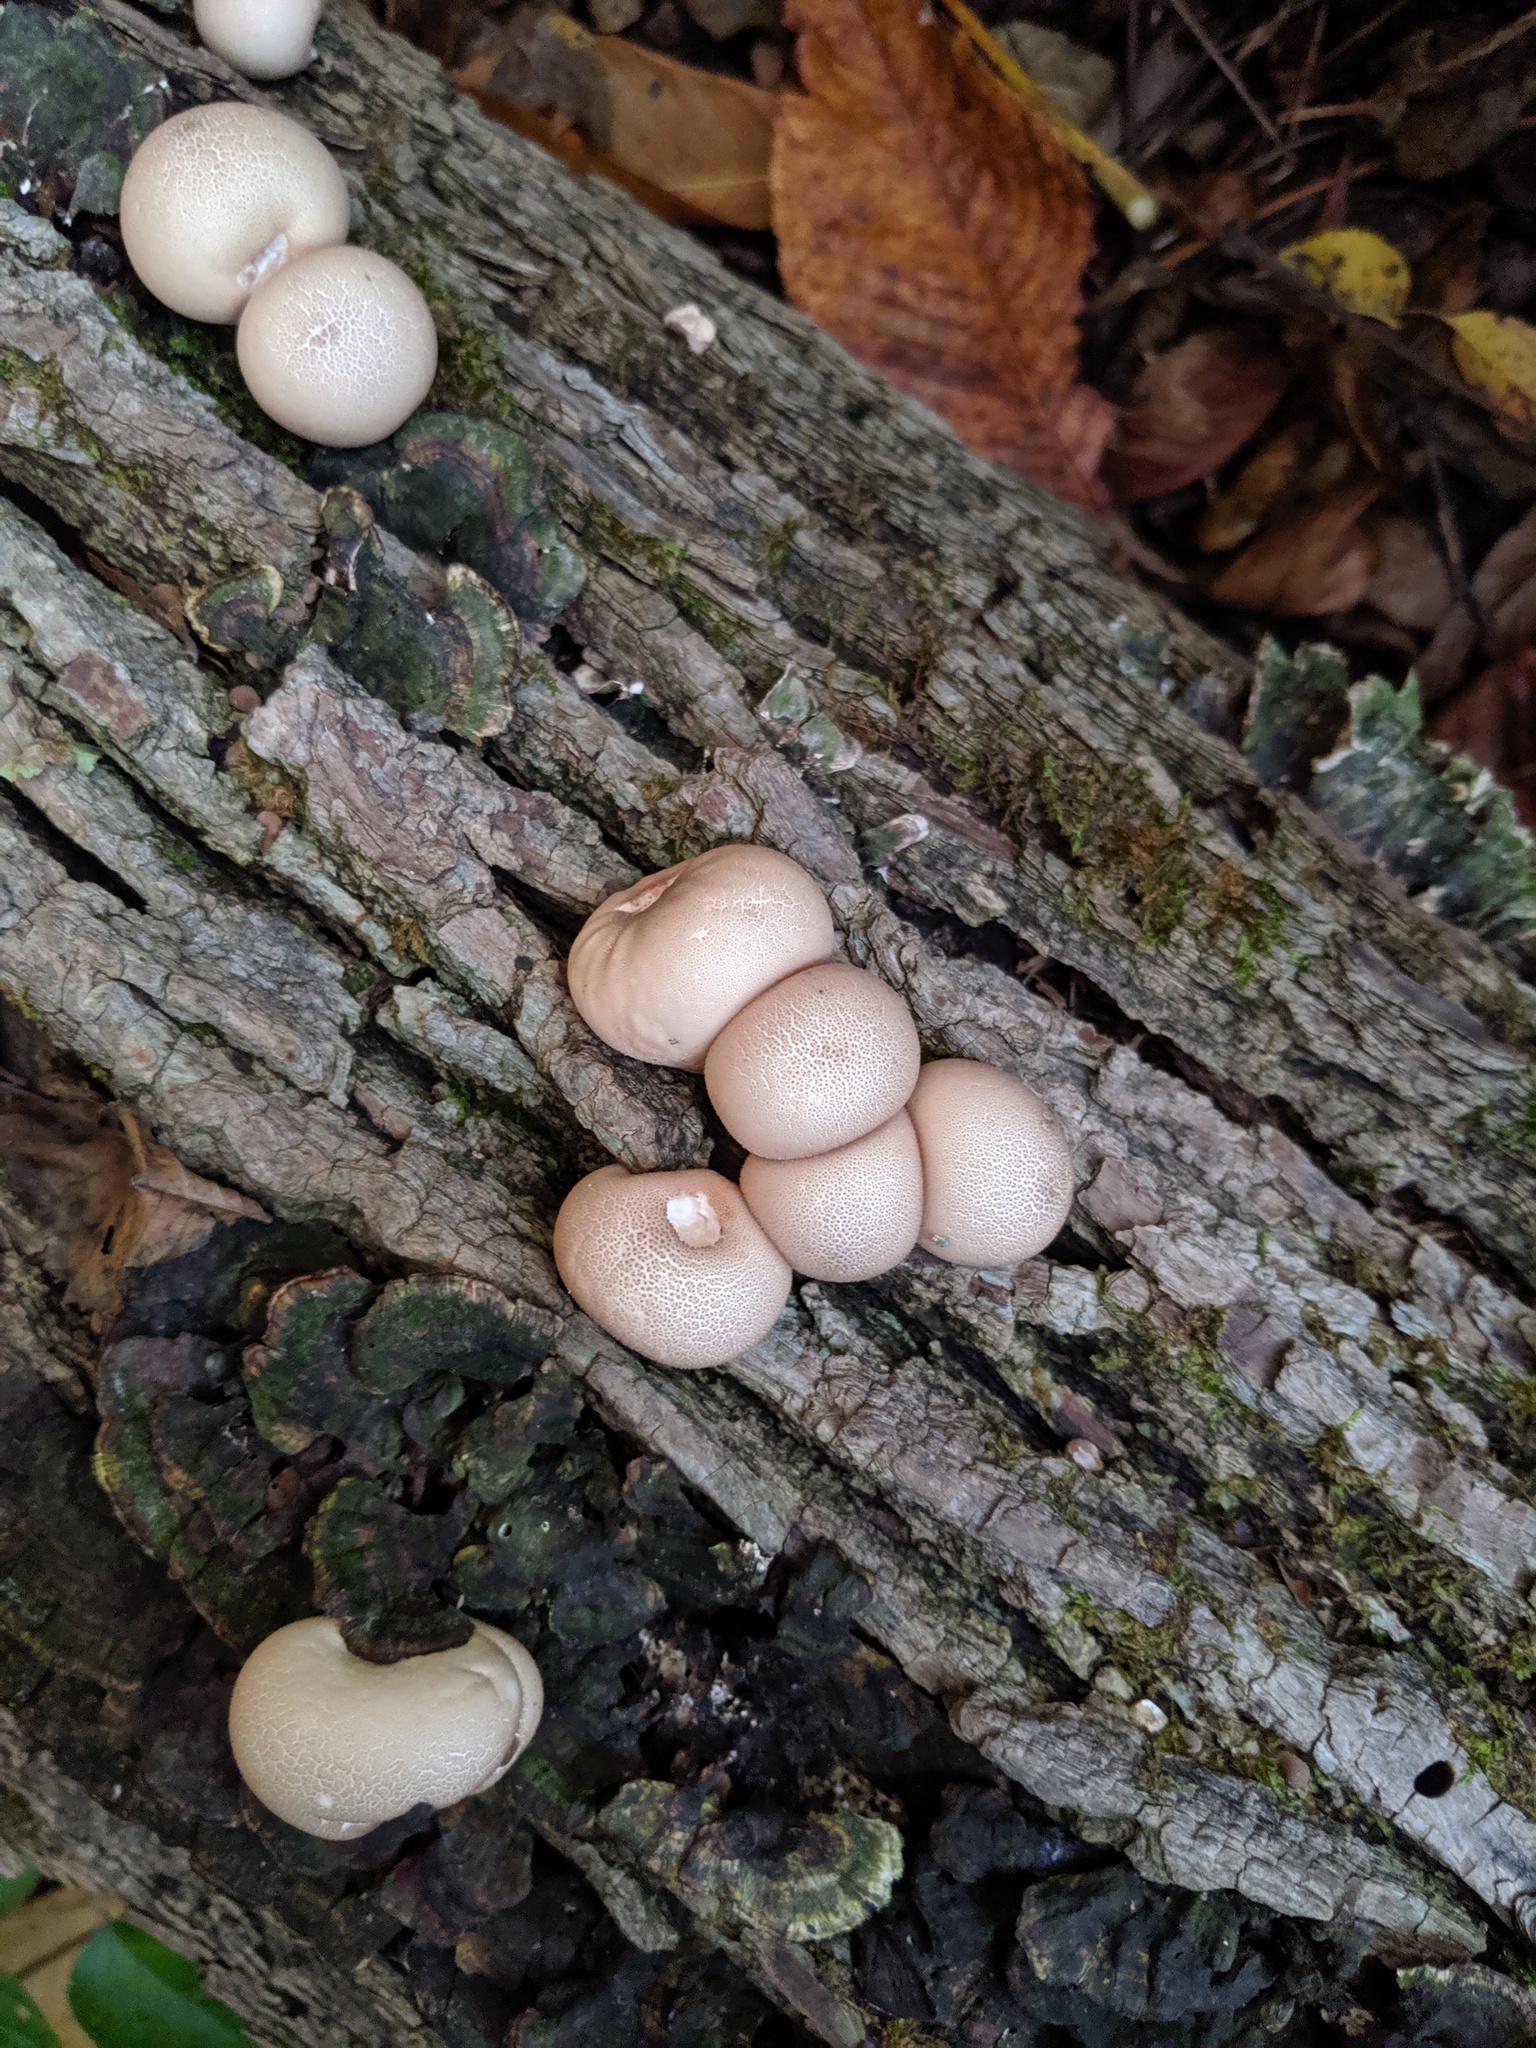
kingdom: Fungi
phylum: Basidiomycota
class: Agaricomycetes
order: Agaricales
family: Lycoperdaceae
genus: Apioperdon
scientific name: Apioperdon pyriforme
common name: Pear-shaped puffball
